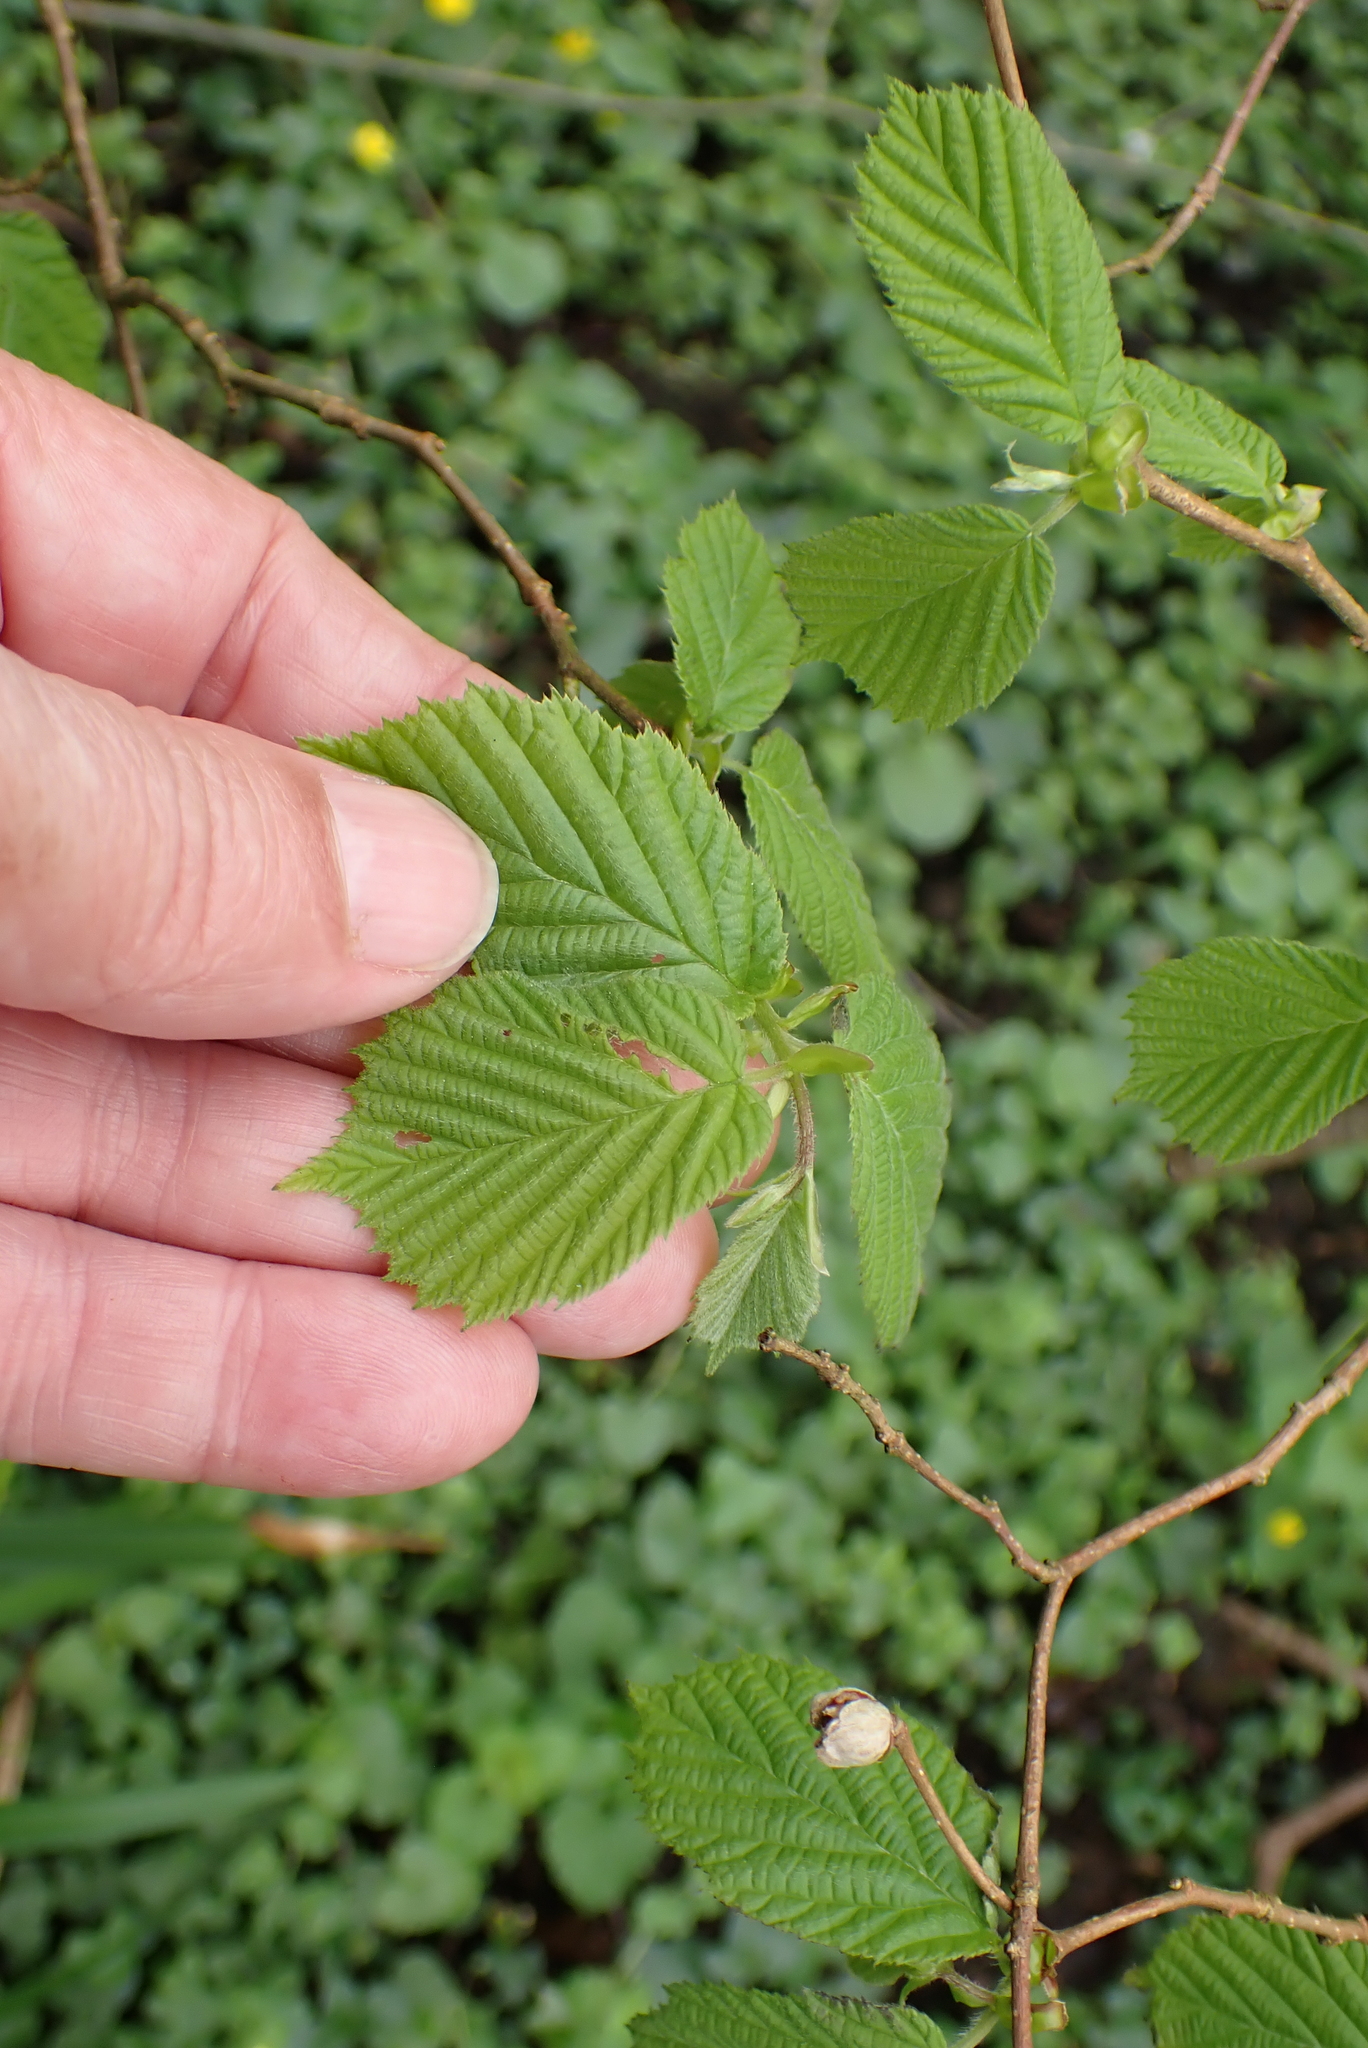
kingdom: Plantae
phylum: Tracheophyta
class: Magnoliopsida
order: Fagales
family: Betulaceae
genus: Corylus
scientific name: Corylus avellana
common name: European hazel
